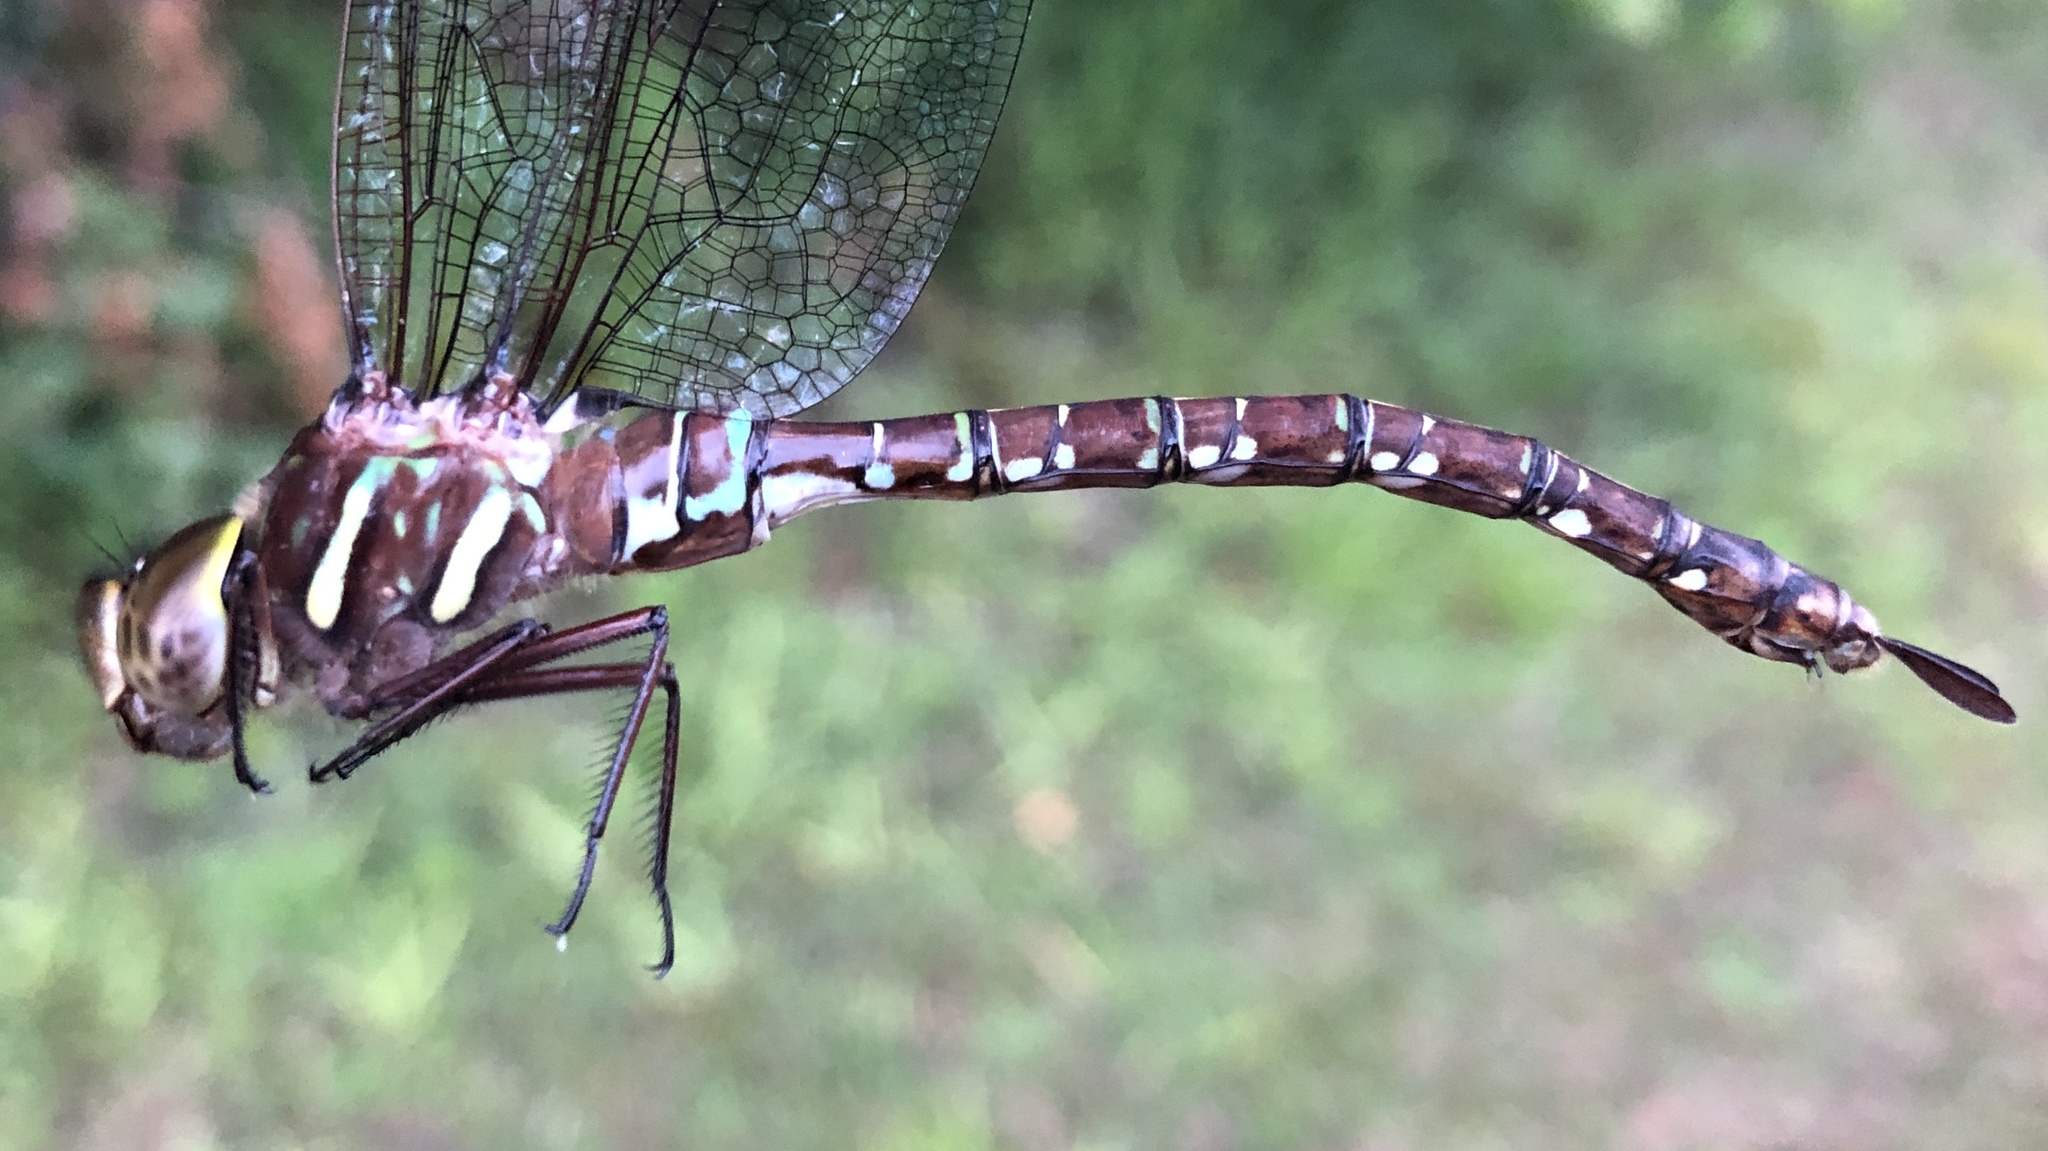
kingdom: Animalia
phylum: Arthropoda
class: Insecta
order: Odonata
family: Aeshnidae
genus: Aeshna
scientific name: Aeshna umbrosa
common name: Shadow darner
